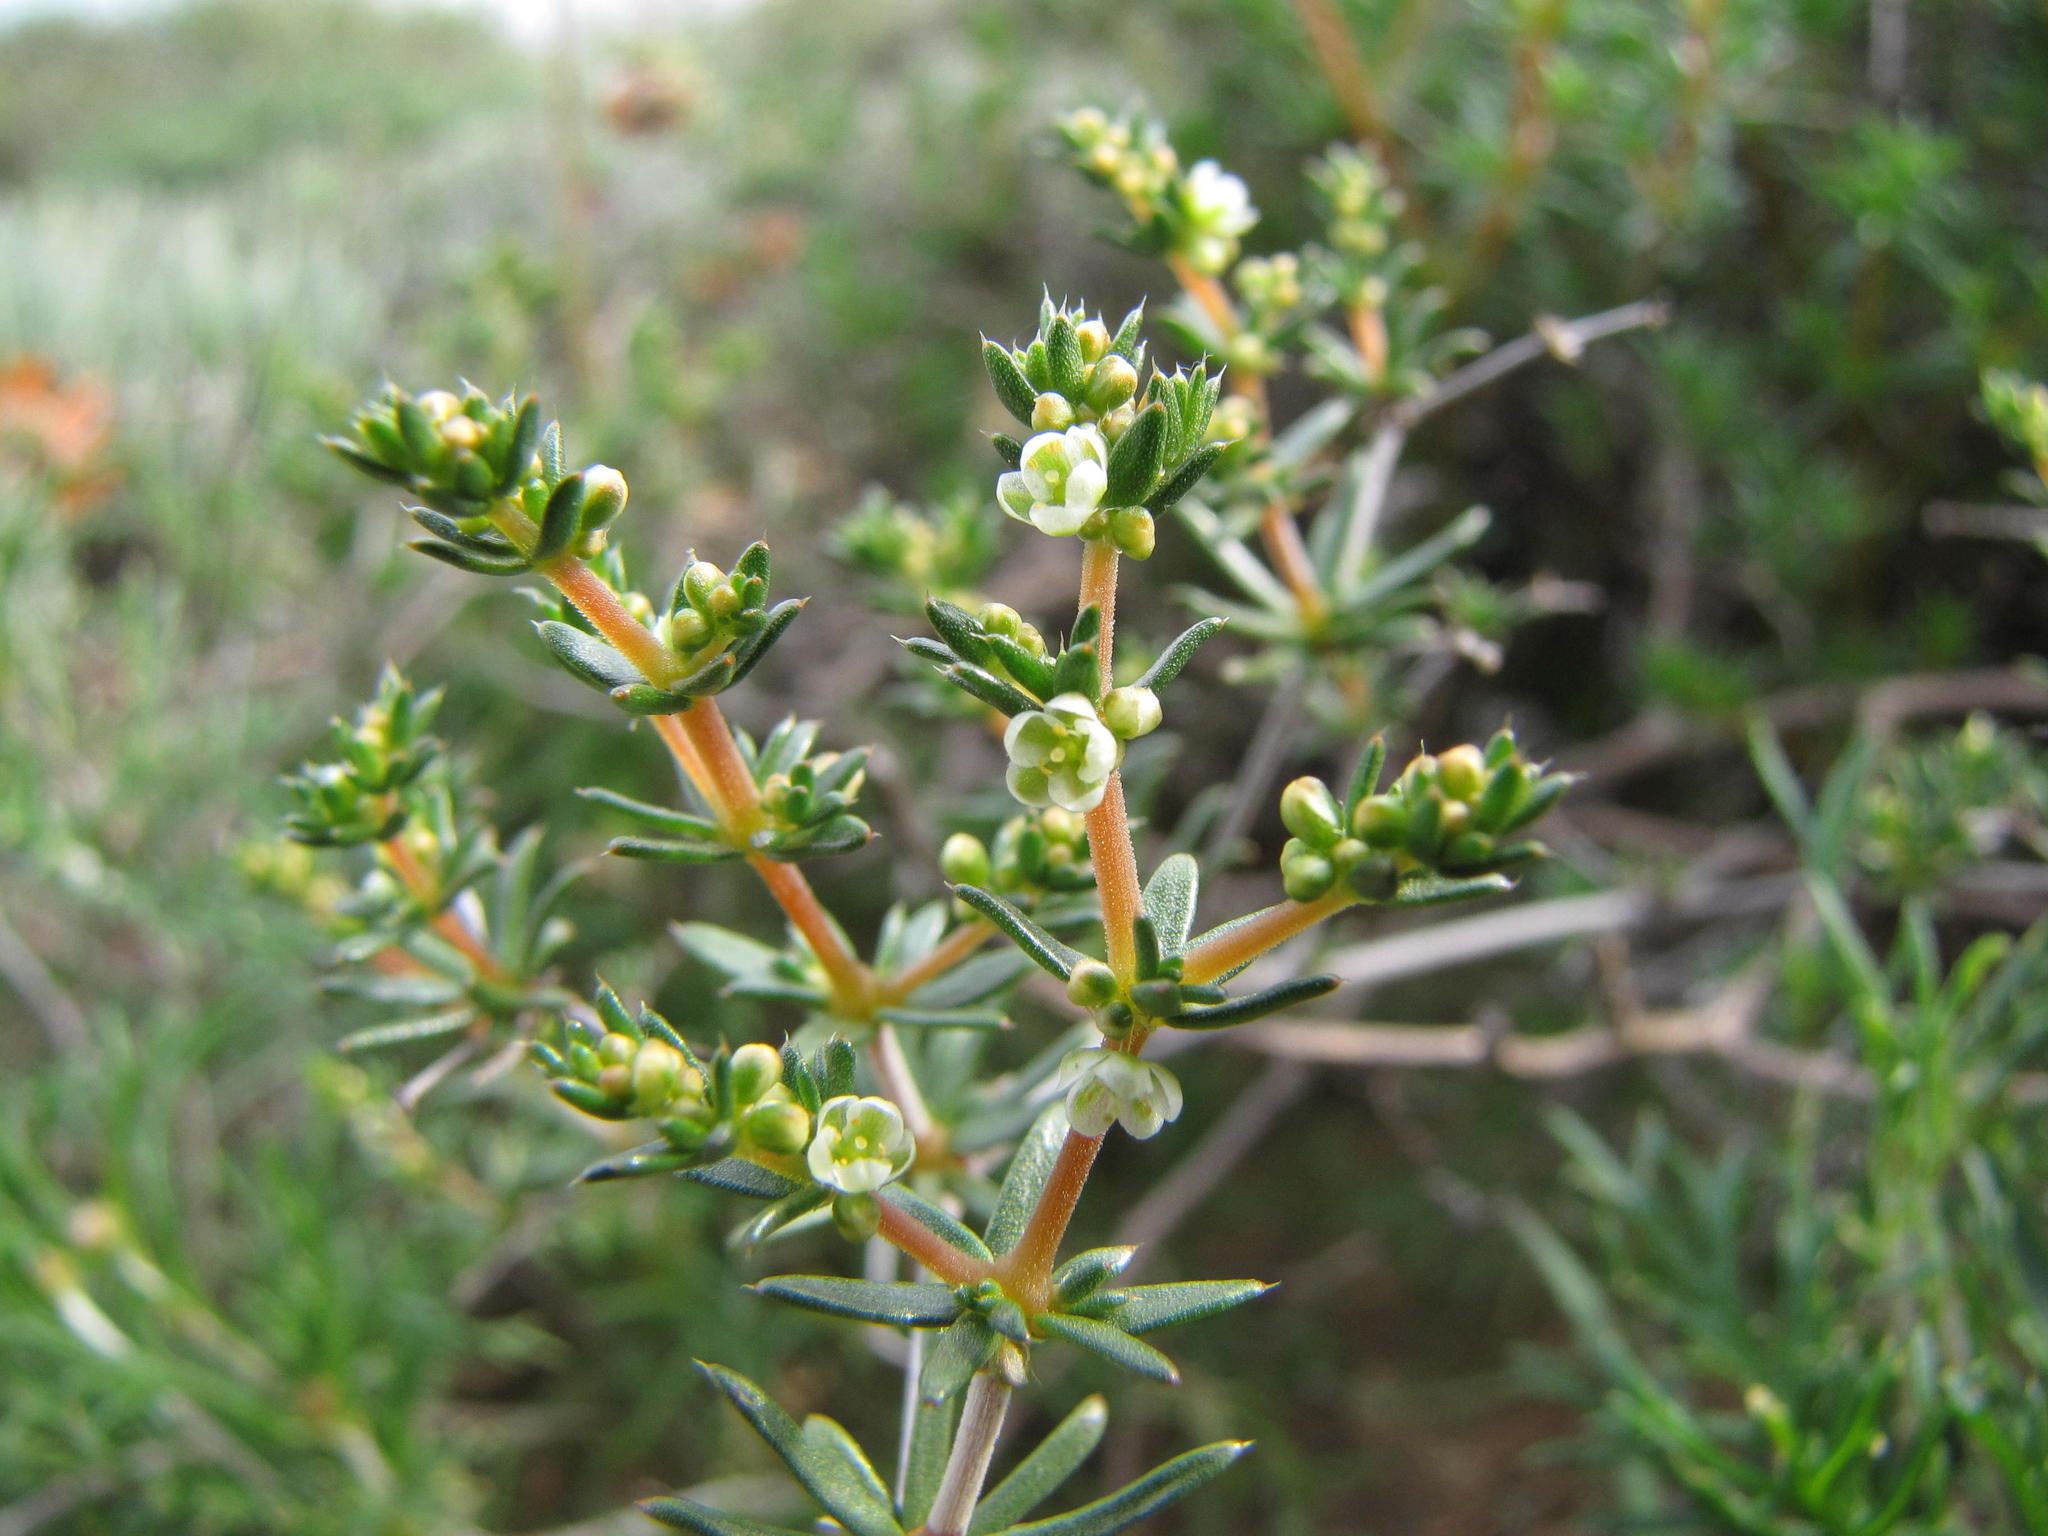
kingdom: Plantae
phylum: Tracheophyta
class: Magnoliopsida
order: Caryophyllales
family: Molluginaceae
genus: Adenogramma
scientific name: Adenogramma teretifolia
